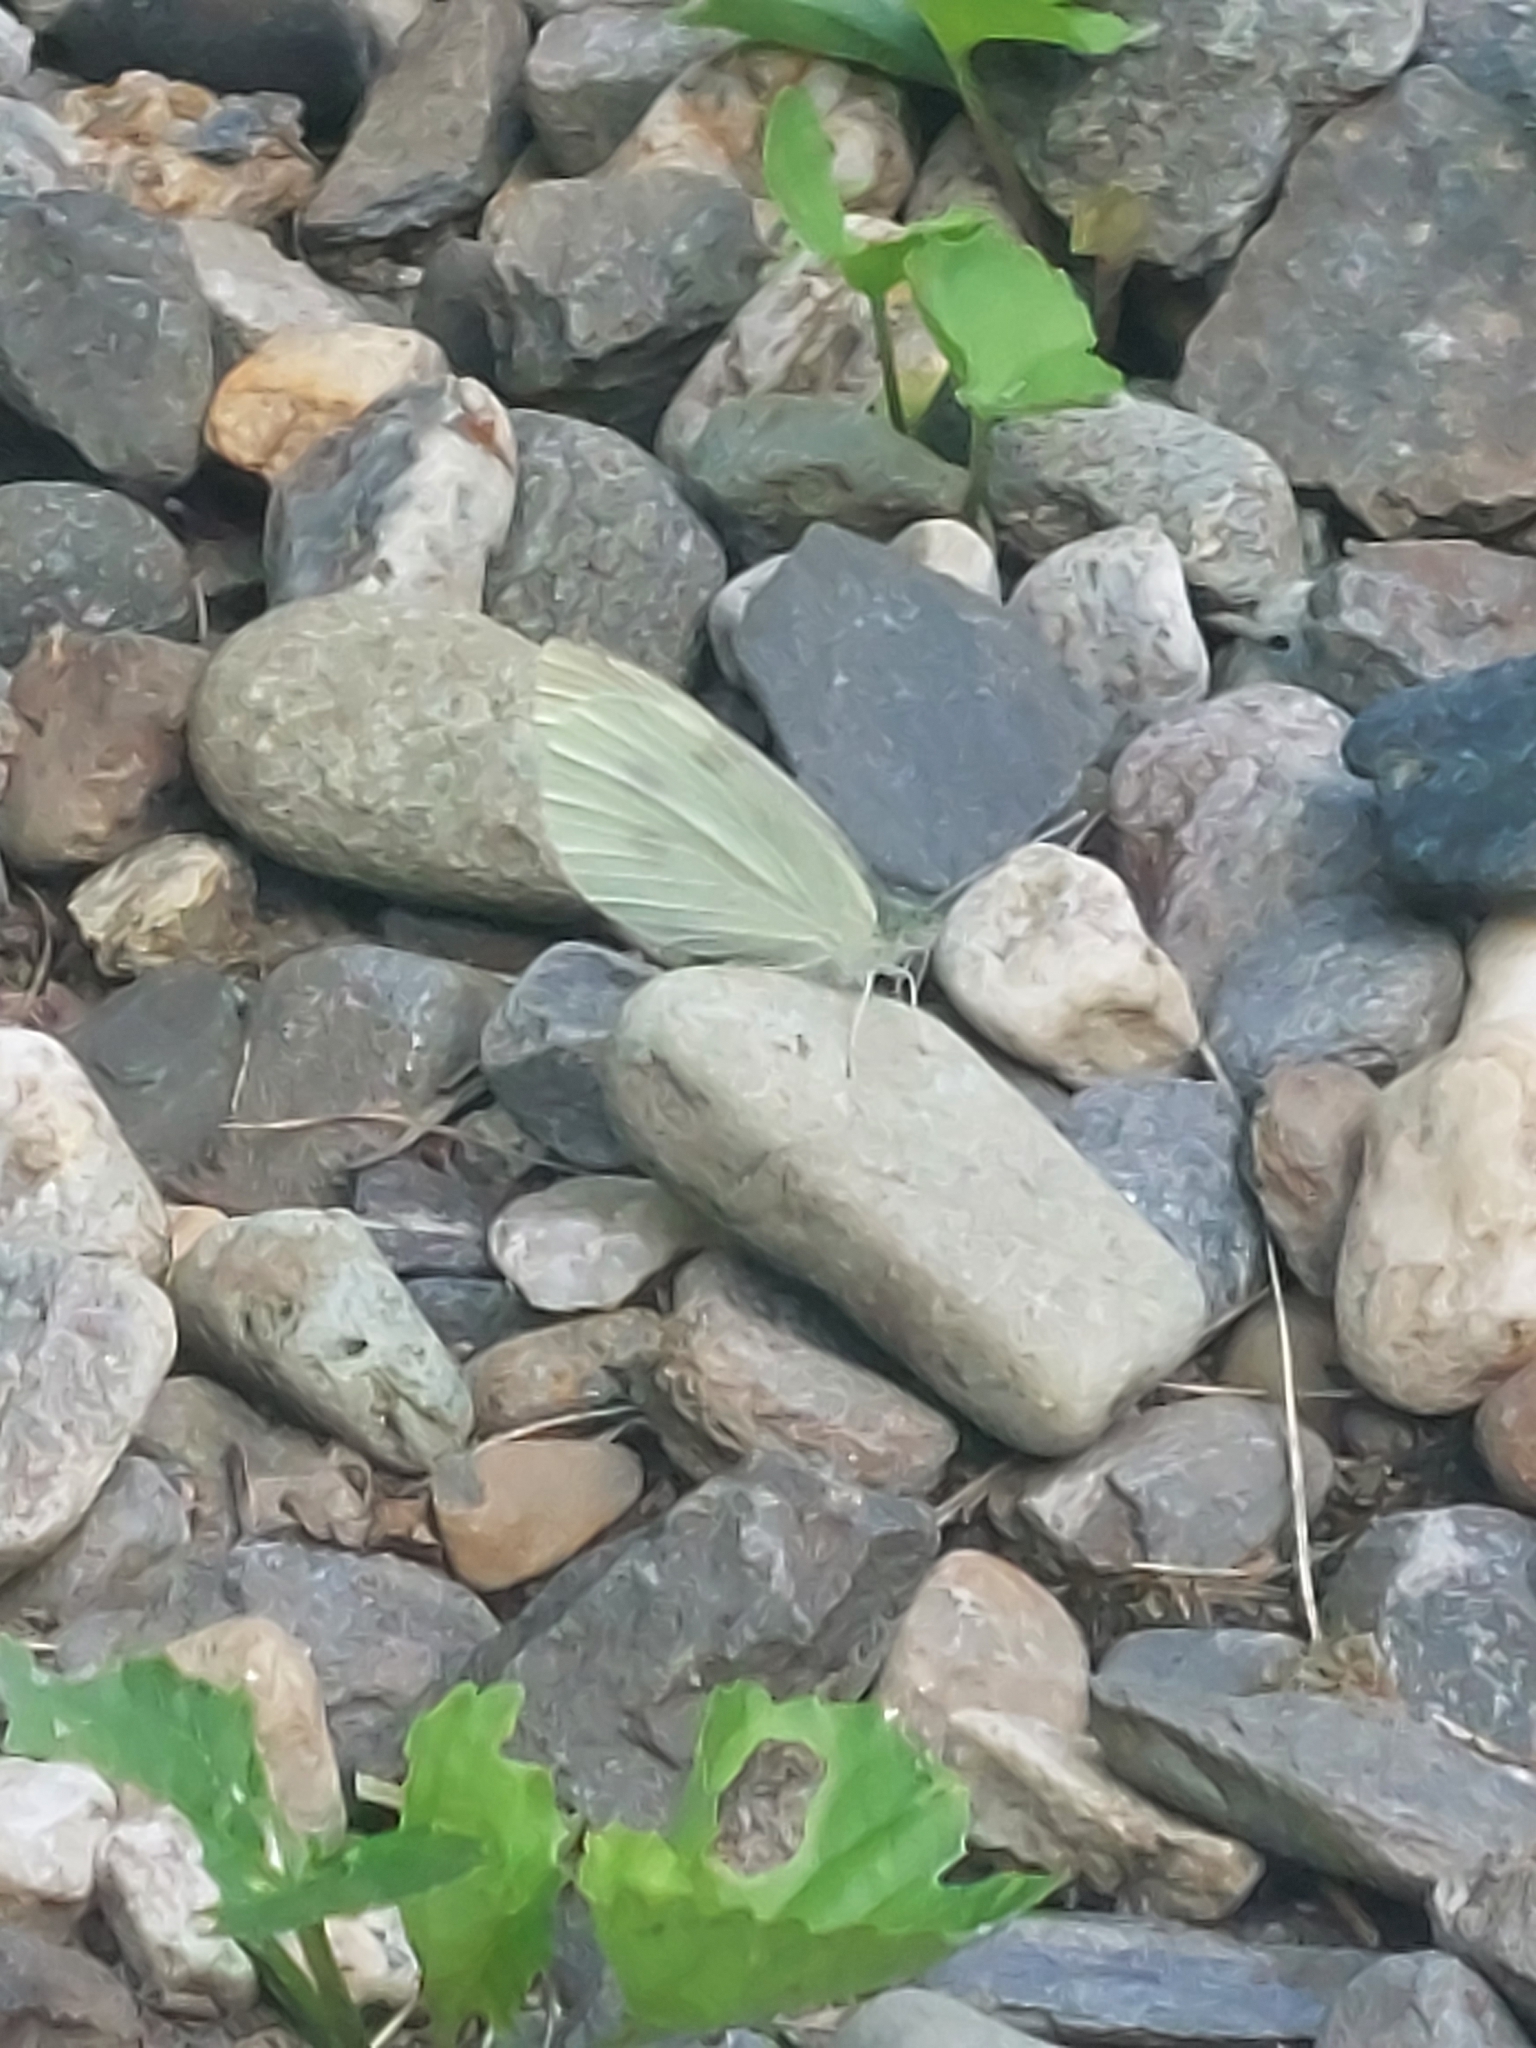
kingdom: Animalia
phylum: Arthropoda
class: Insecta
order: Lepidoptera
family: Pieridae
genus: Pieris
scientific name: Pieris rapae
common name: Small white
